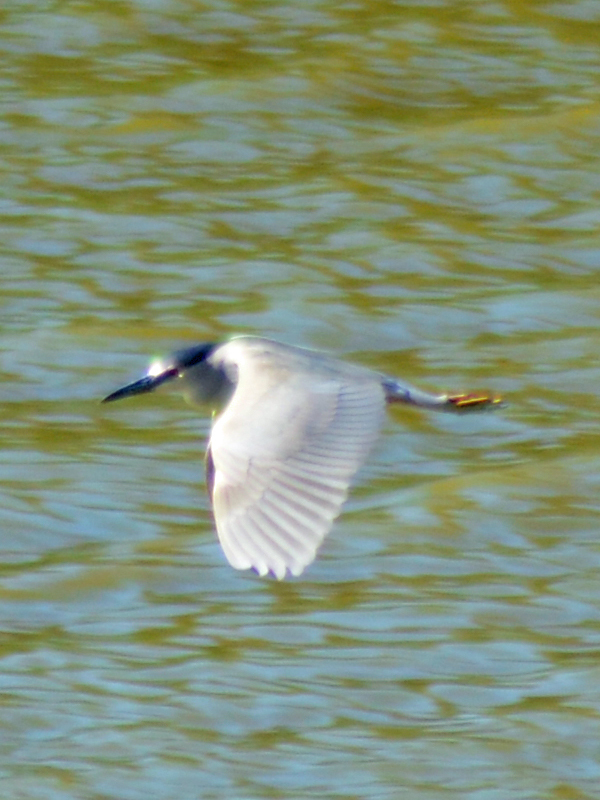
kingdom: Animalia
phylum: Chordata
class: Aves
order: Pelecaniformes
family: Ardeidae
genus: Nycticorax
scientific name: Nycticorax nycticorax
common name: Black-crowned night heron
